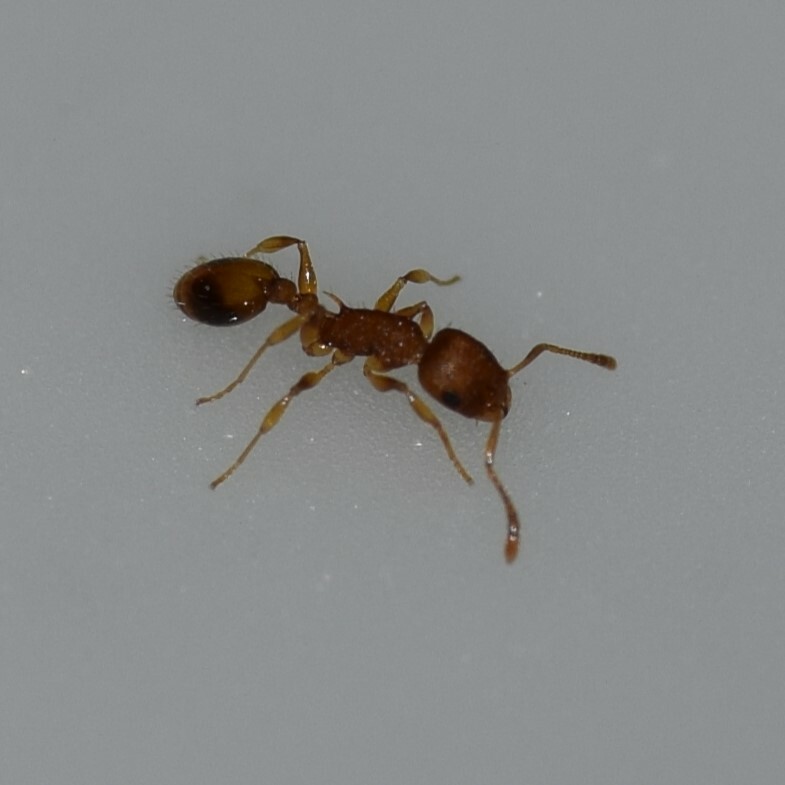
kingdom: Animalia
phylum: Arthropoda
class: Insecta
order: Hymenoptera
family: Formicidae
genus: Temnothorax
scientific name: Temnothorax curvispinosus
